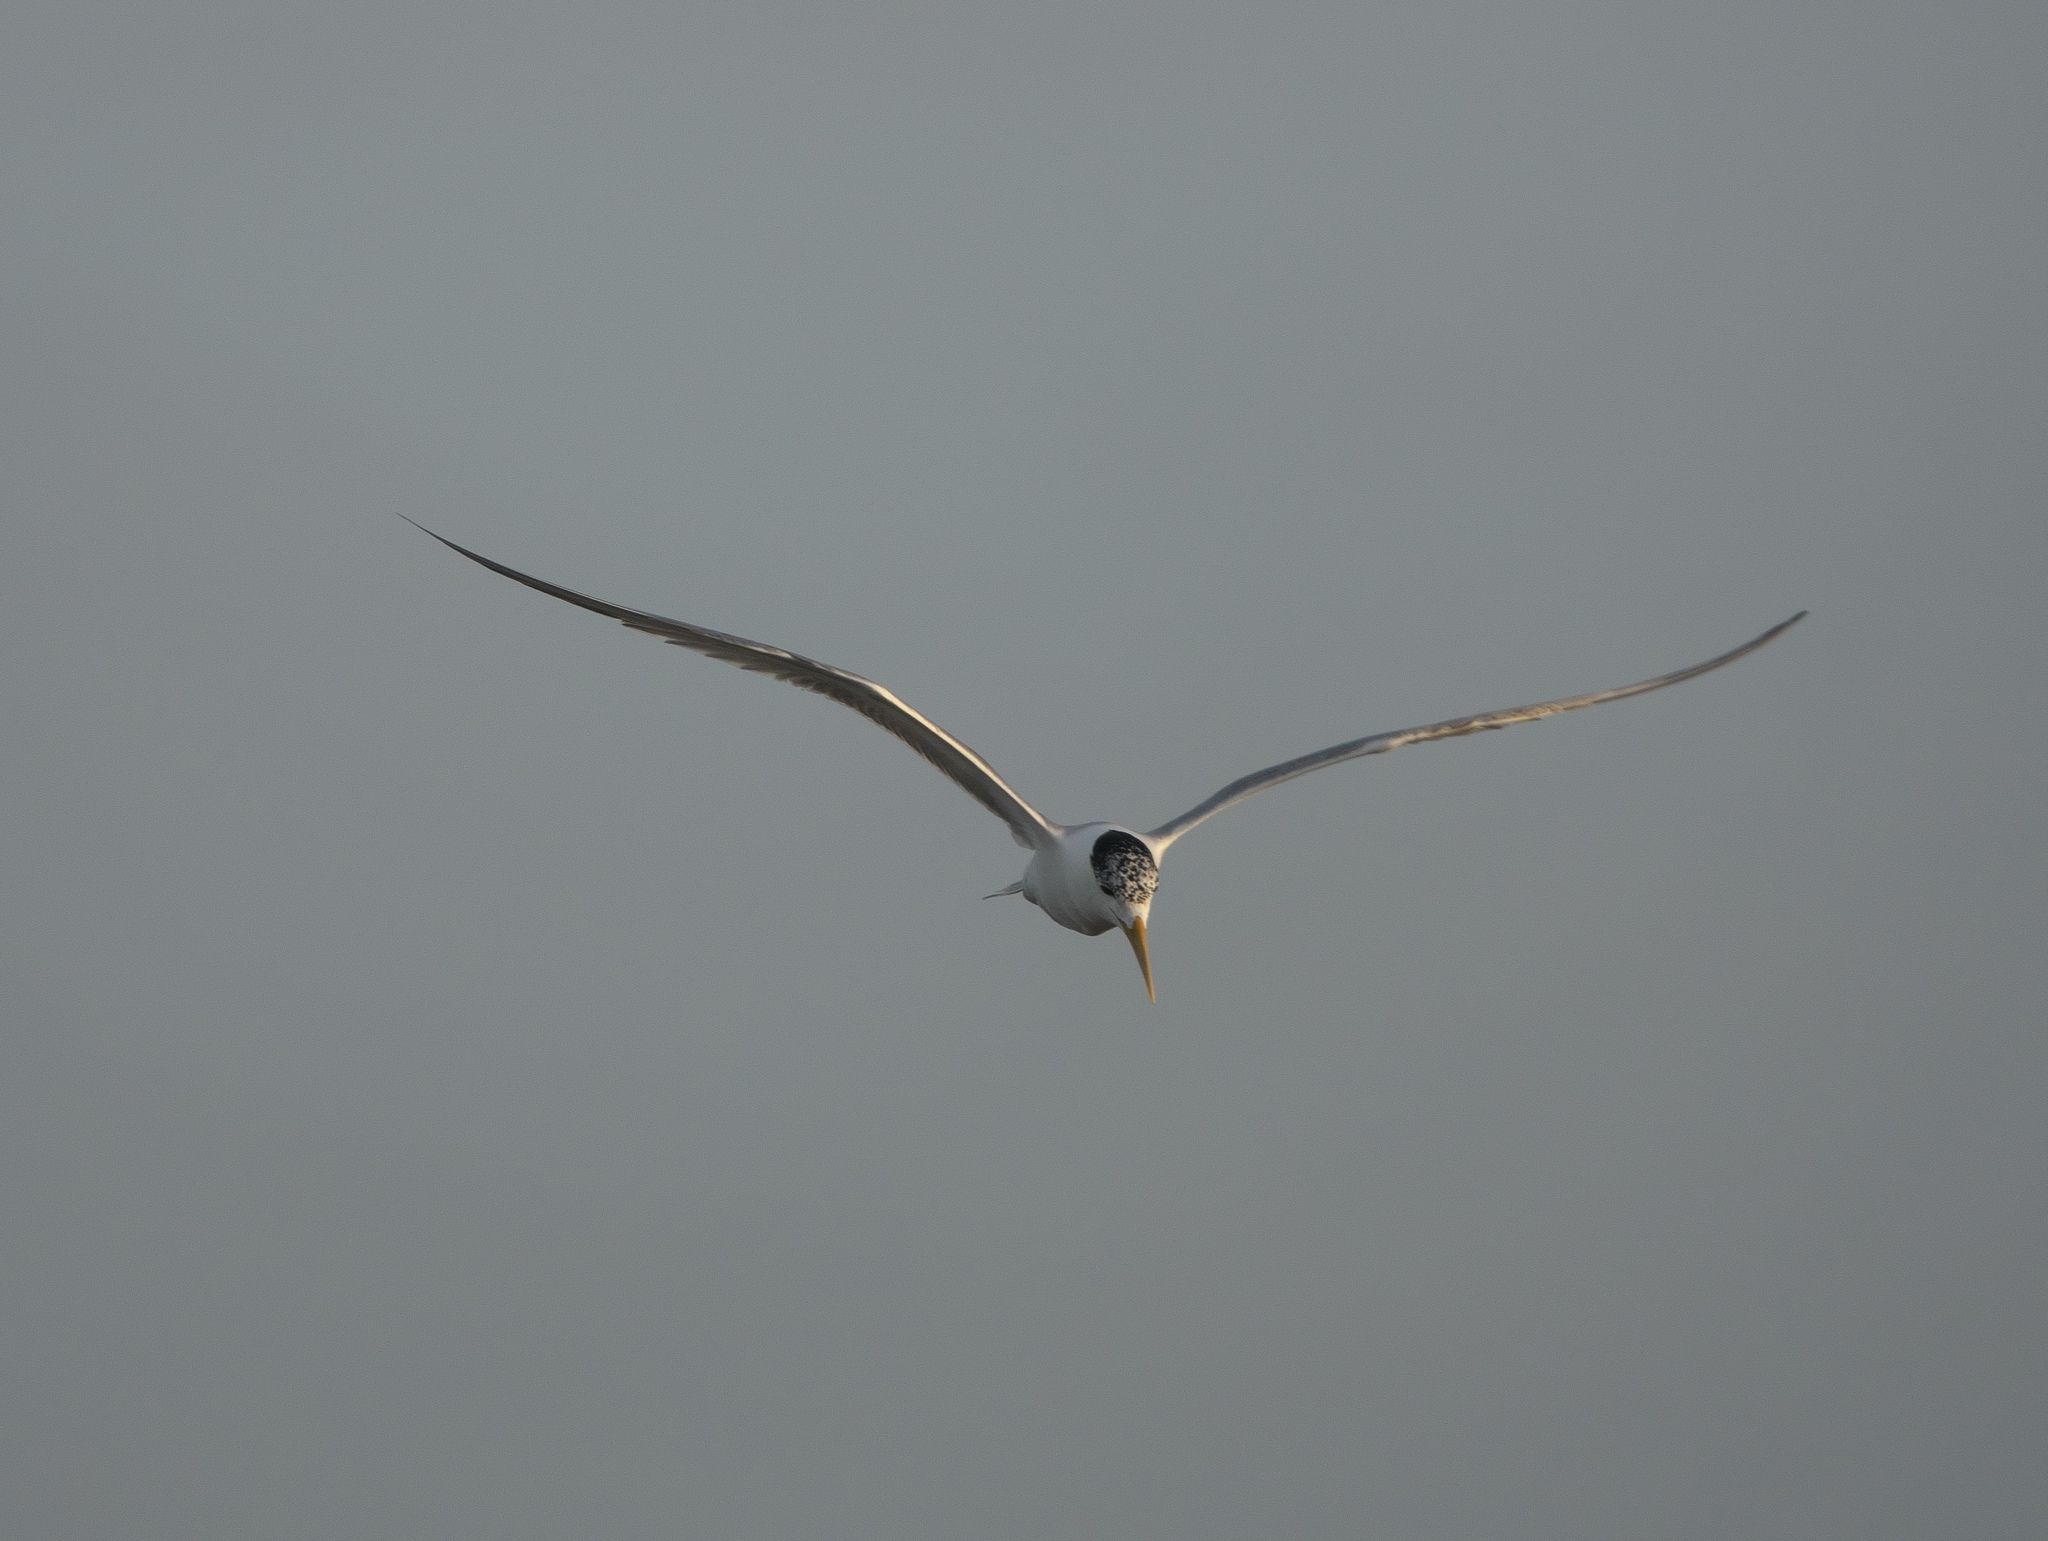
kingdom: Animalia
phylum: Chordata
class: Aves
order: Charadriiformes
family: Laridae
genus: Thalasseus
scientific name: Thalasseus bergii
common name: Greater crested tern
